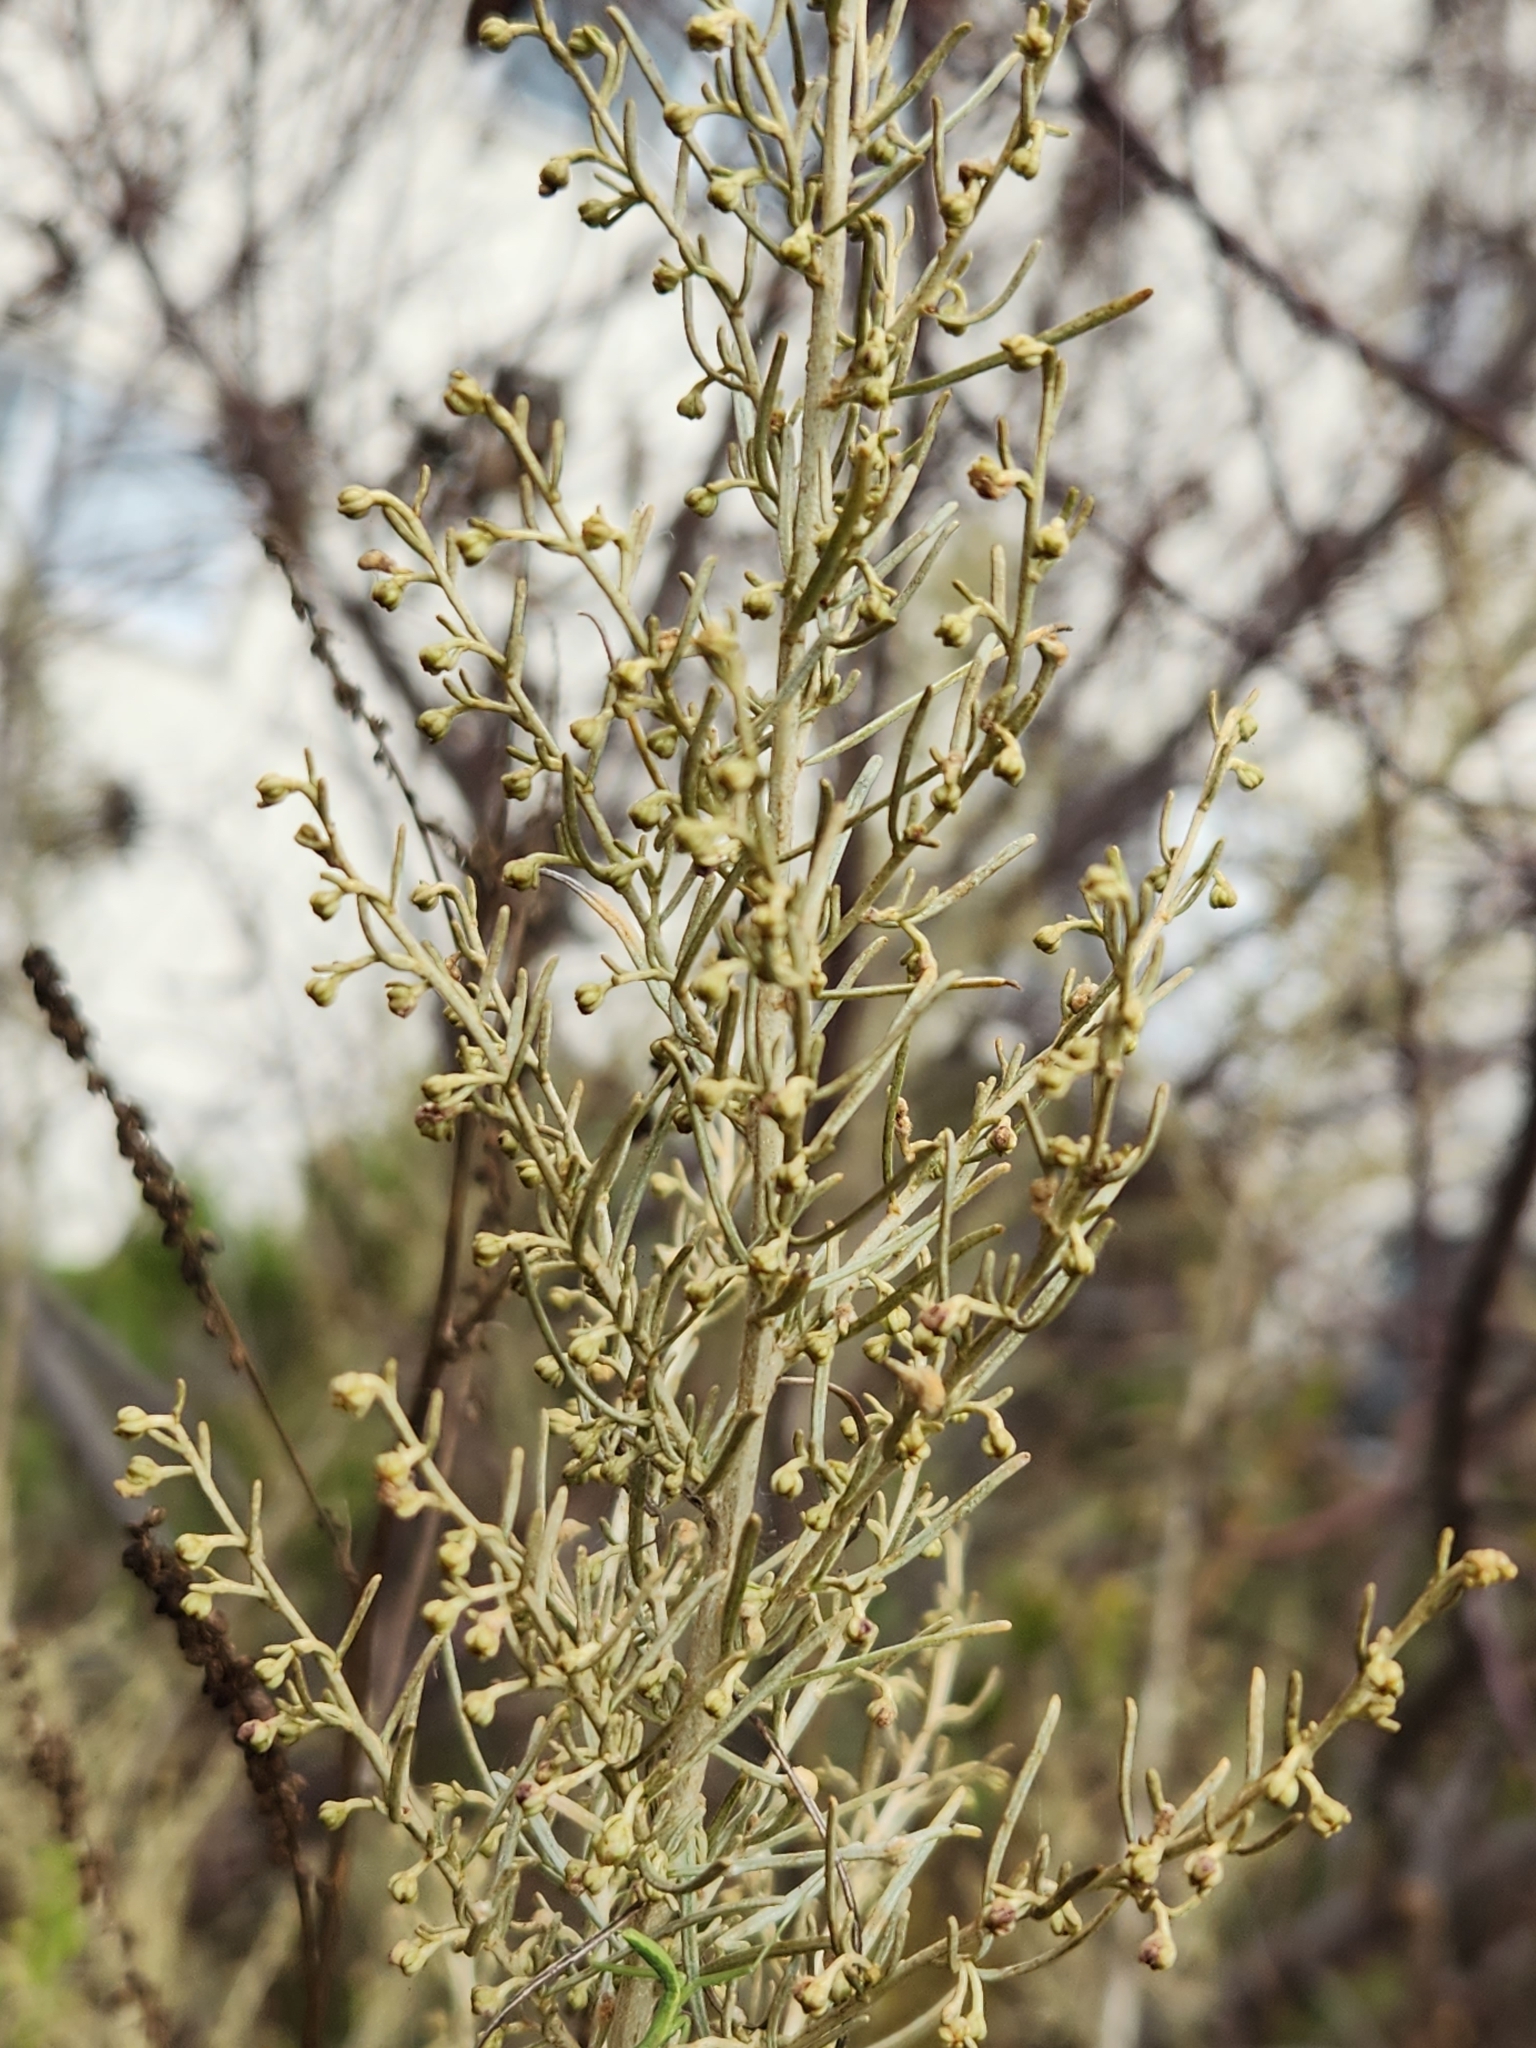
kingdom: Plantae
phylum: Tracheophyta
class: Magnoliopsida
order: Asterales
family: Asteraceae
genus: Artemisia
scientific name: Artemisia californica
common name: California sagebrush
